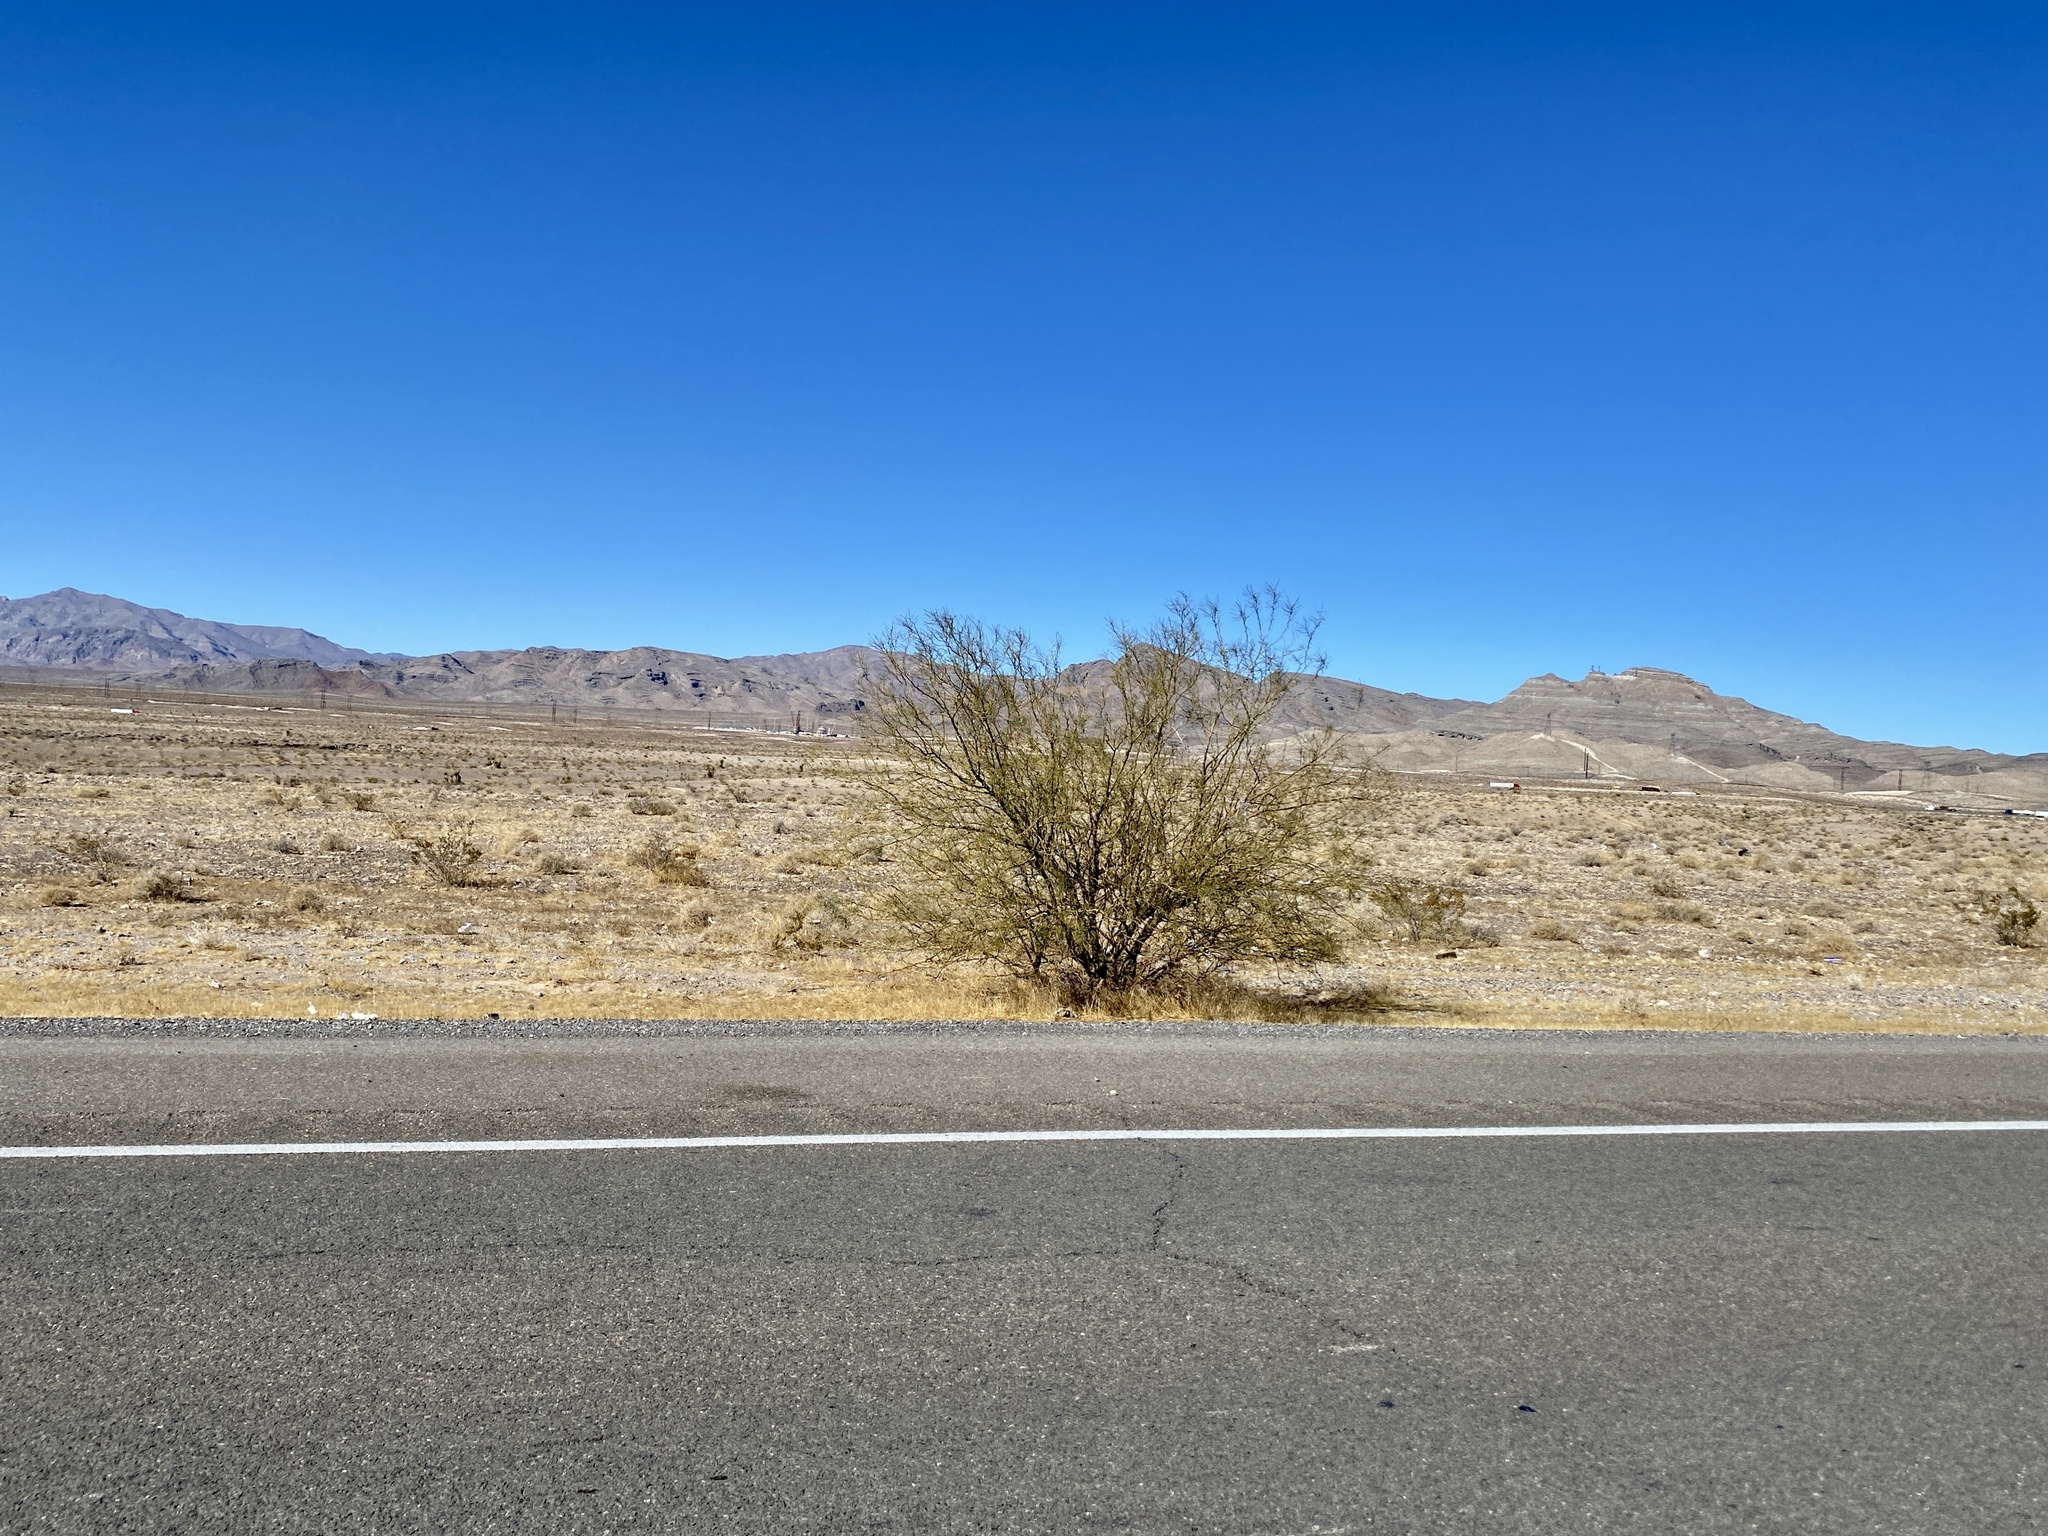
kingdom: Plantae
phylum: Tracheophyta
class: Magnoliopsida
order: Fabales
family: Fabaceae
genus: Parkinsonia
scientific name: Parkinsonia aculeata
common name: Jerusalem thorn
